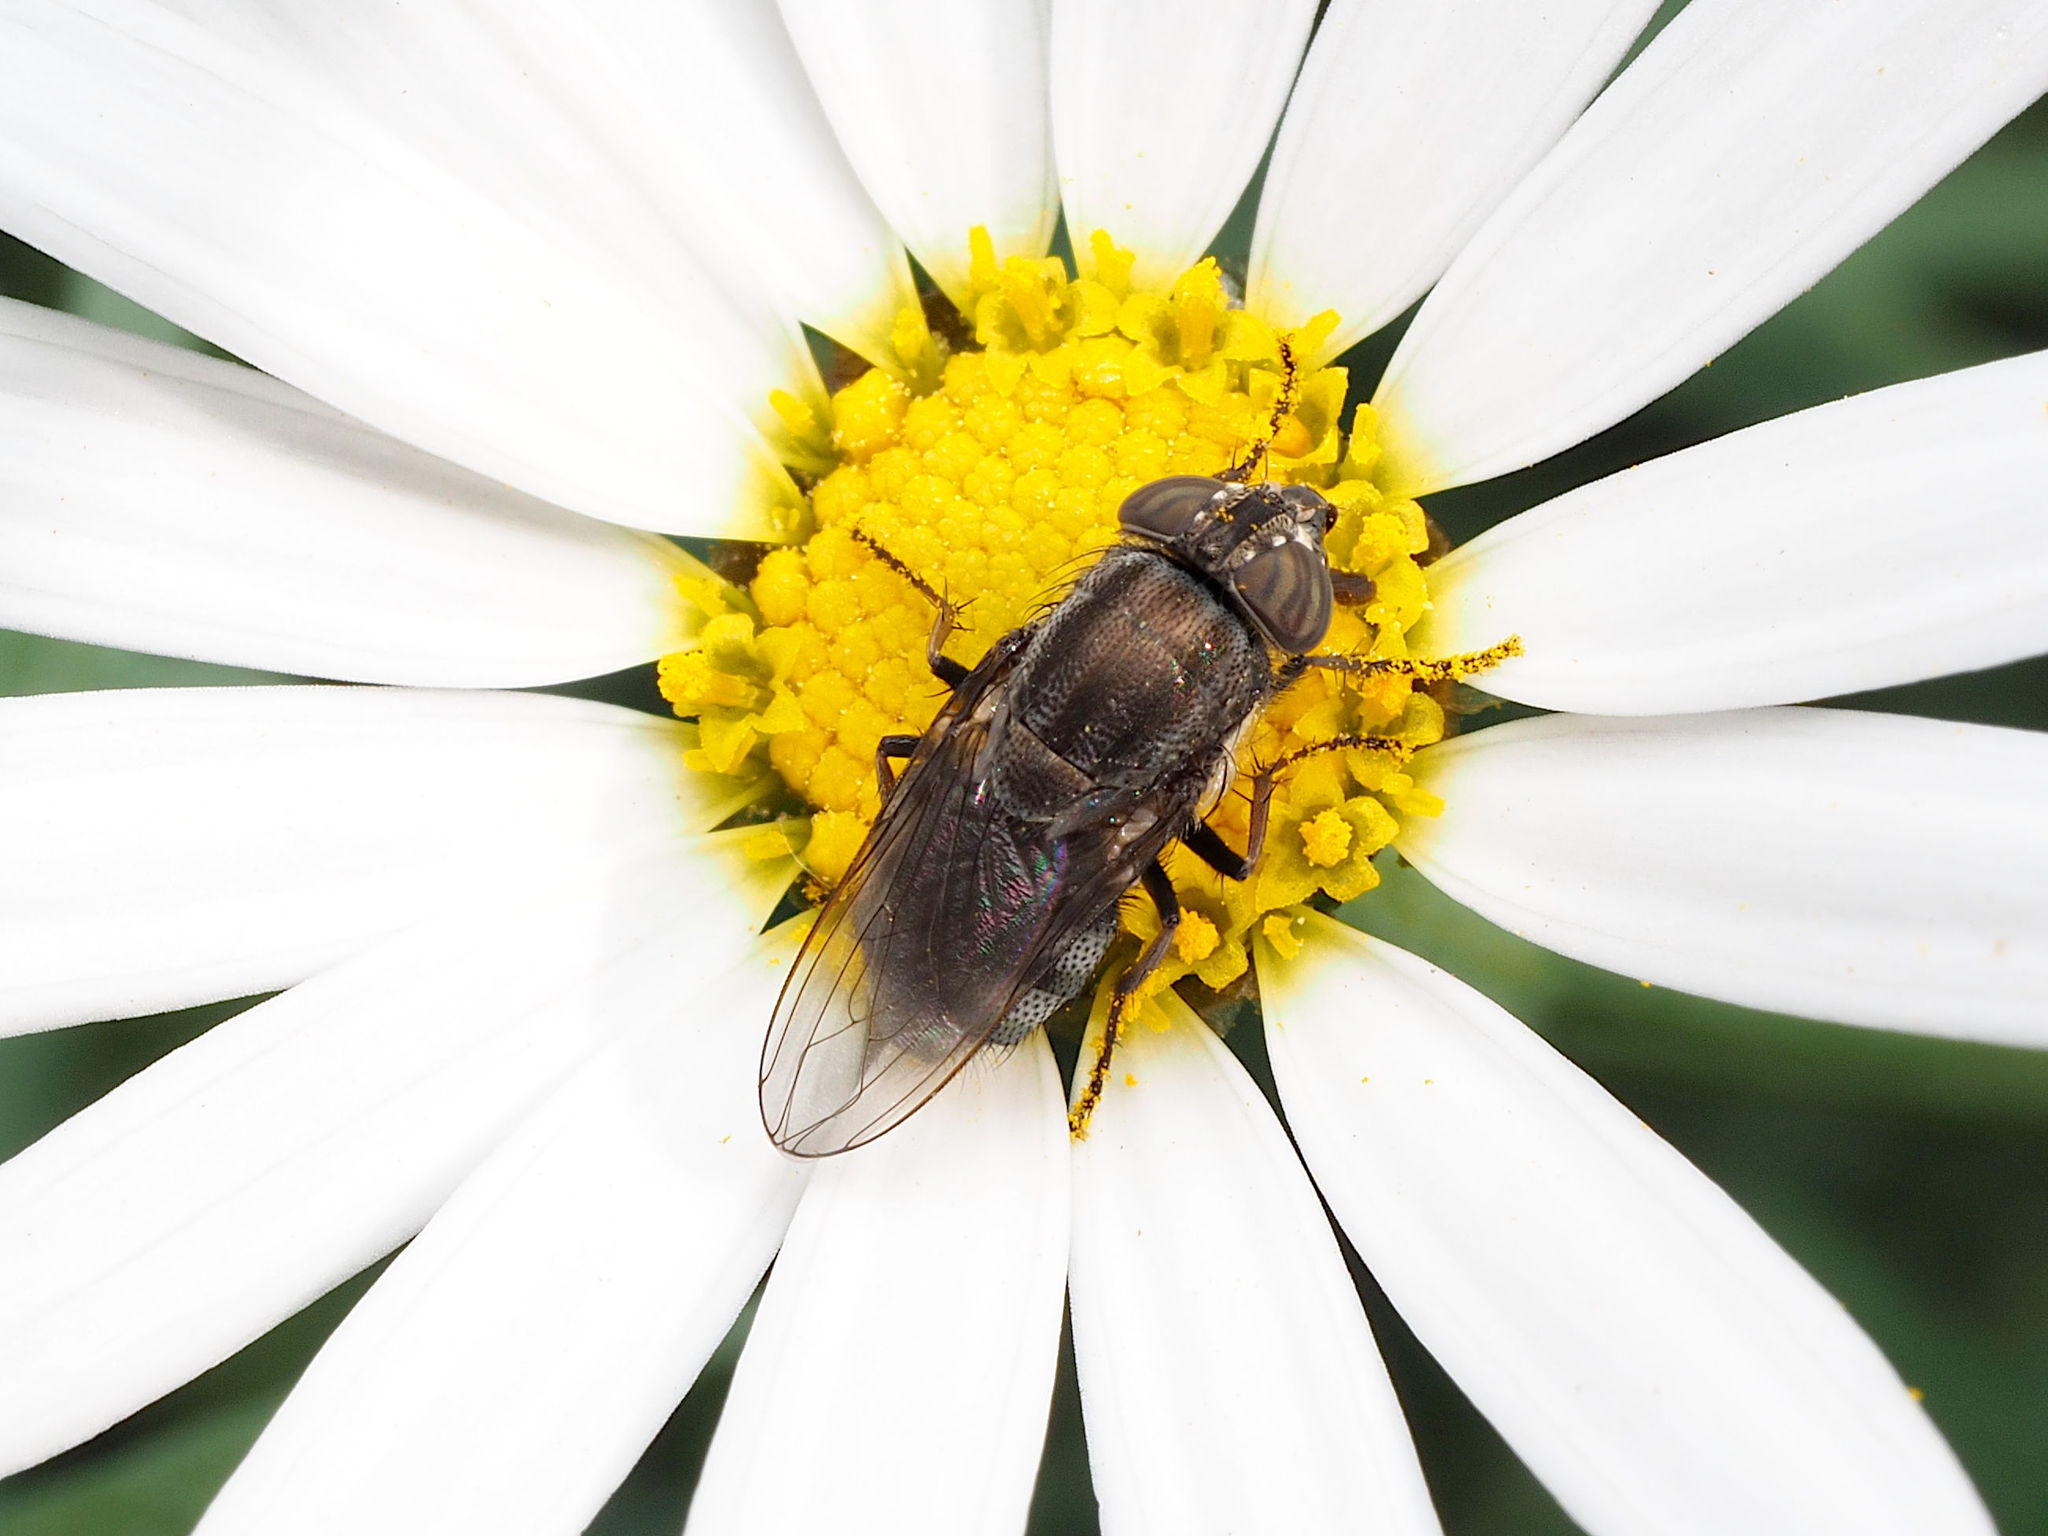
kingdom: Animalia
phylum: Arthropoda
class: Insecta
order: Diptera
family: Calliphoridae
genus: Stomorhina
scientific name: Stomorhina lunata
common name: Locust blowfly
